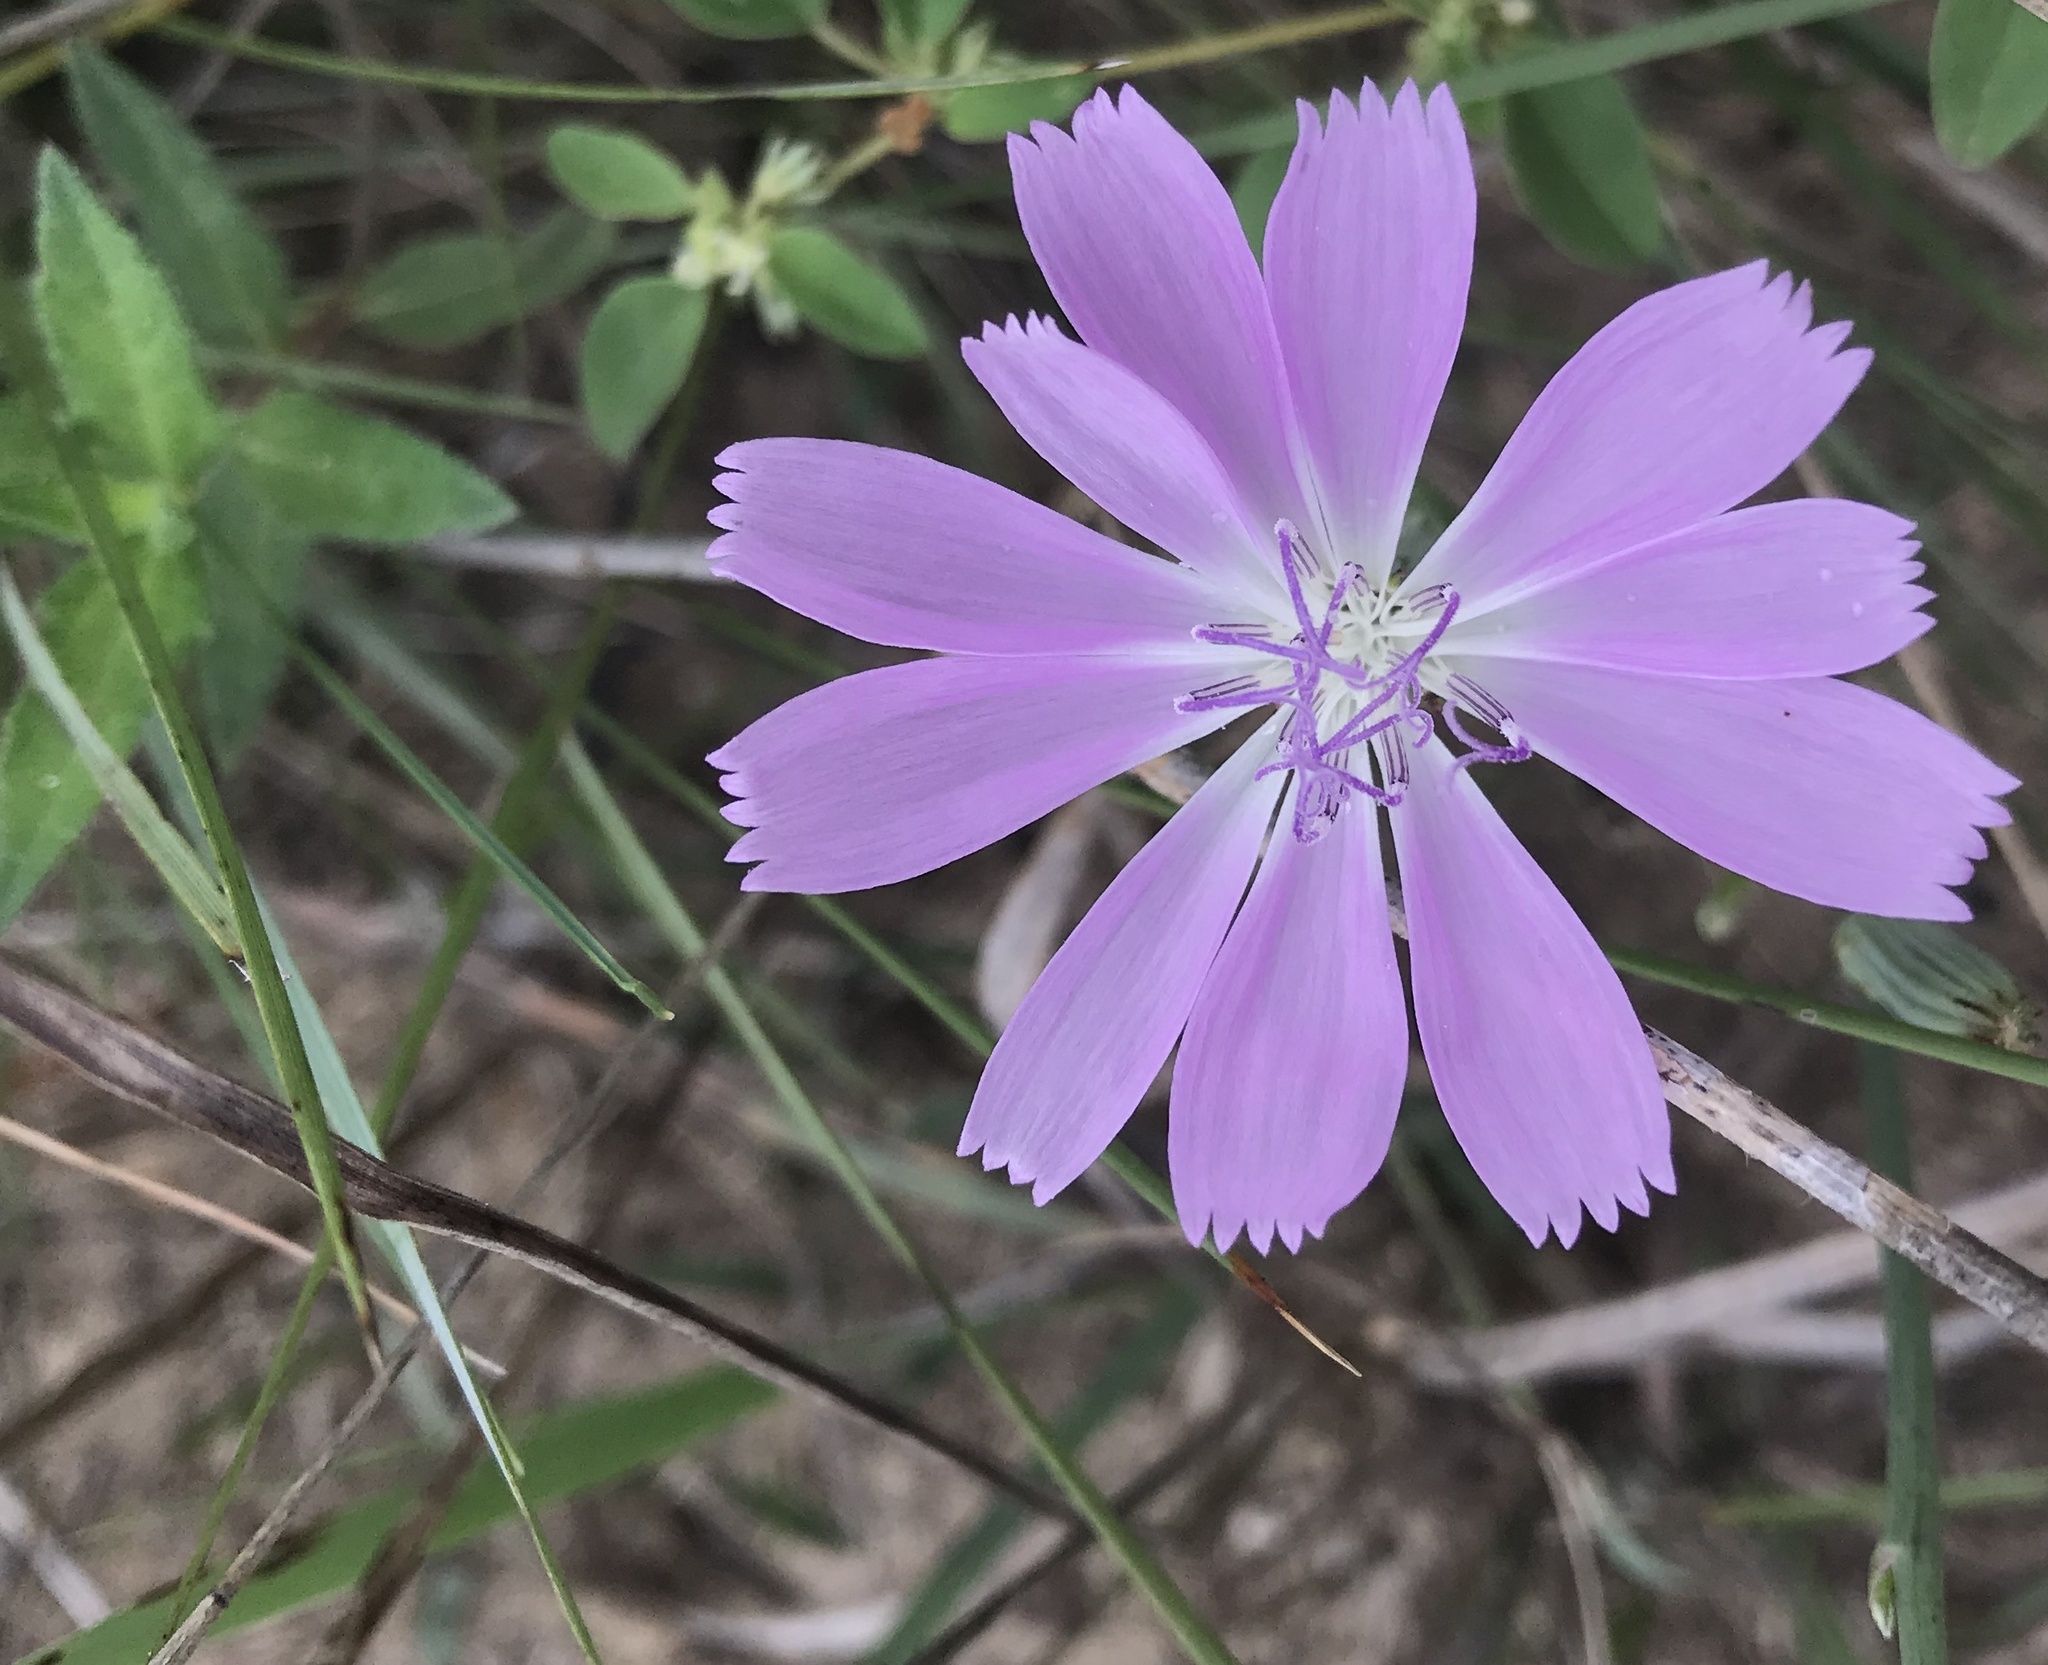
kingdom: Plantae
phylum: Tracheophyta
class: Magnoliopsida
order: Asterales
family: Asteraceae
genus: Lygodesmia
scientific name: Lygodesmia texana
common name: Texas skeleton-plant
